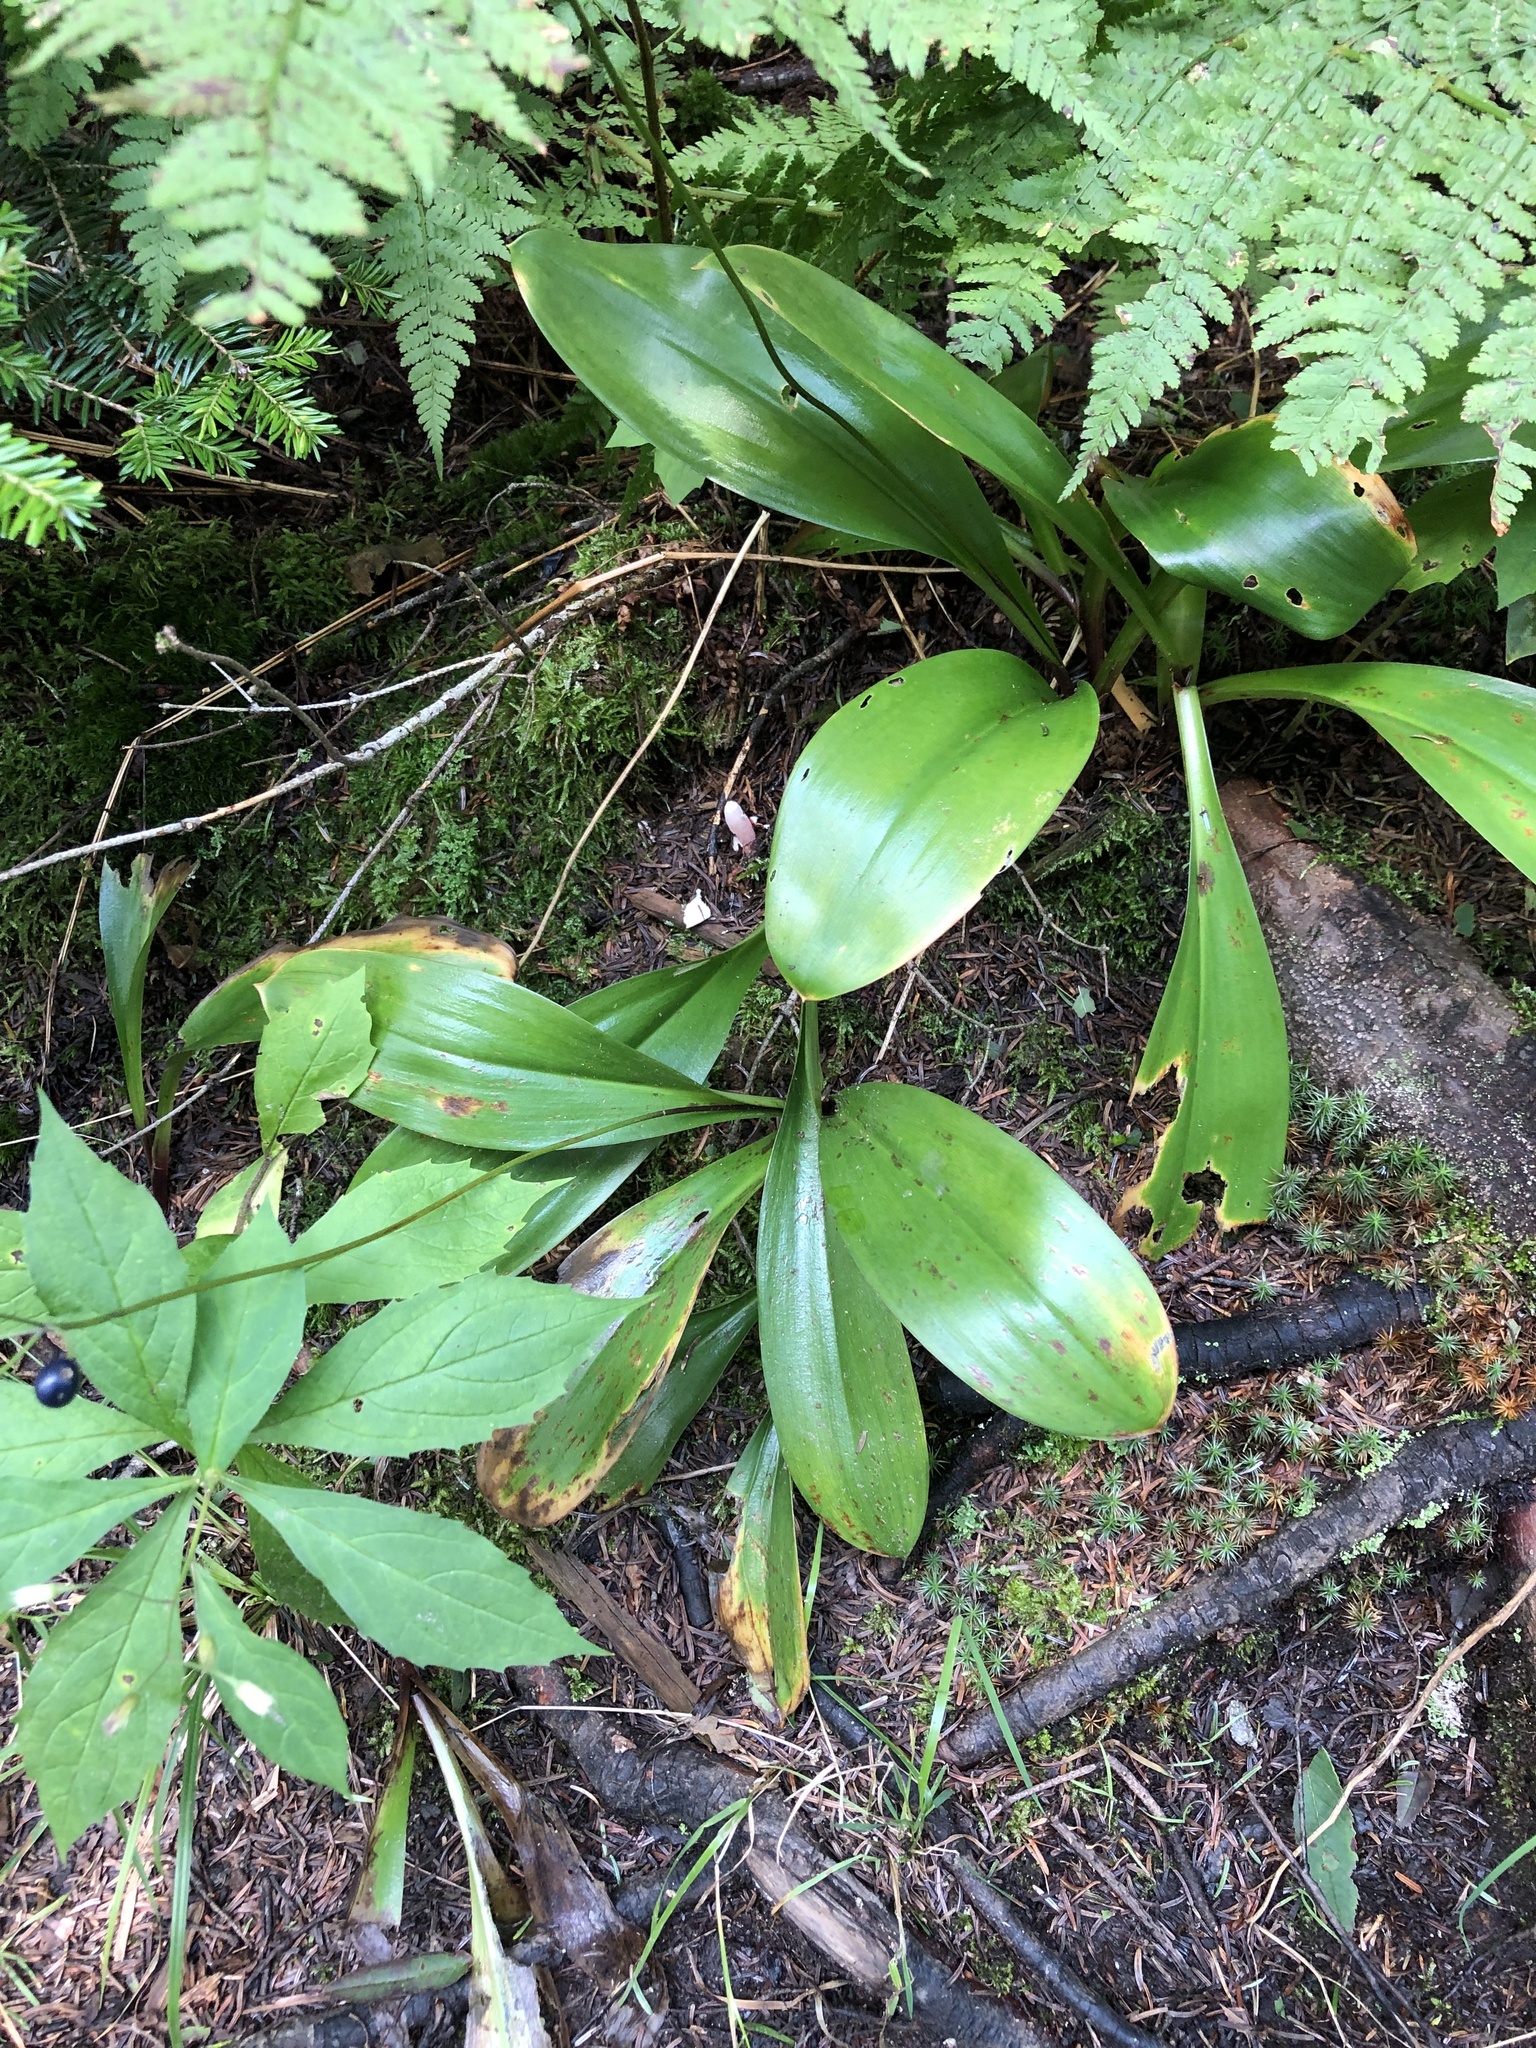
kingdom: Plantae
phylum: Tracheophyta
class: Liliopsida
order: Liliales
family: Liliaceae
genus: Clintonia
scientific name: Clintonia borealis
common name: Yellow clintonia
